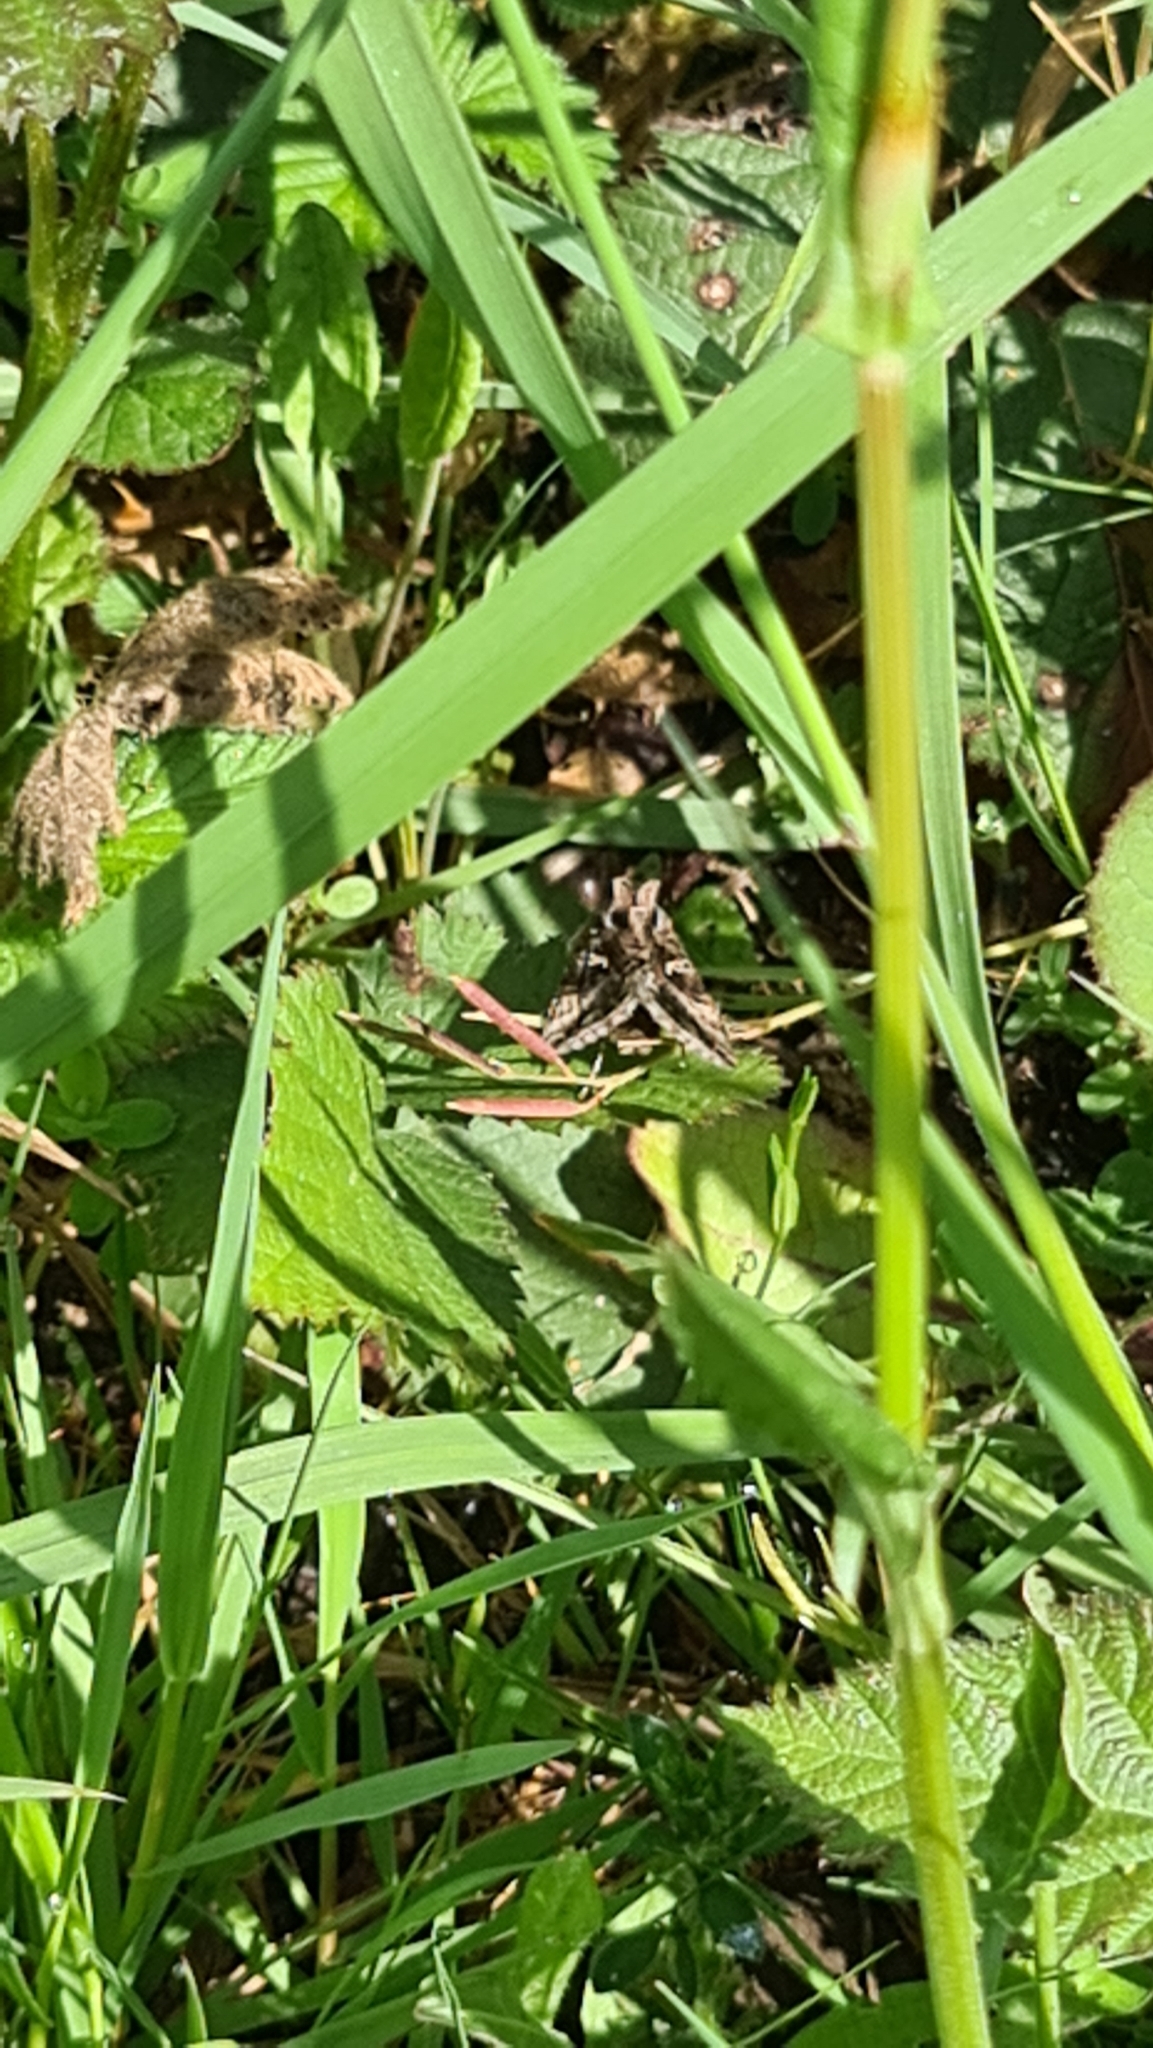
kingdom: Animalia
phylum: Arthropoda
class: Insecta
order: Lepidoptera
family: Noctuidae
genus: Autographa
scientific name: Autographa gamma
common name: Silver y
